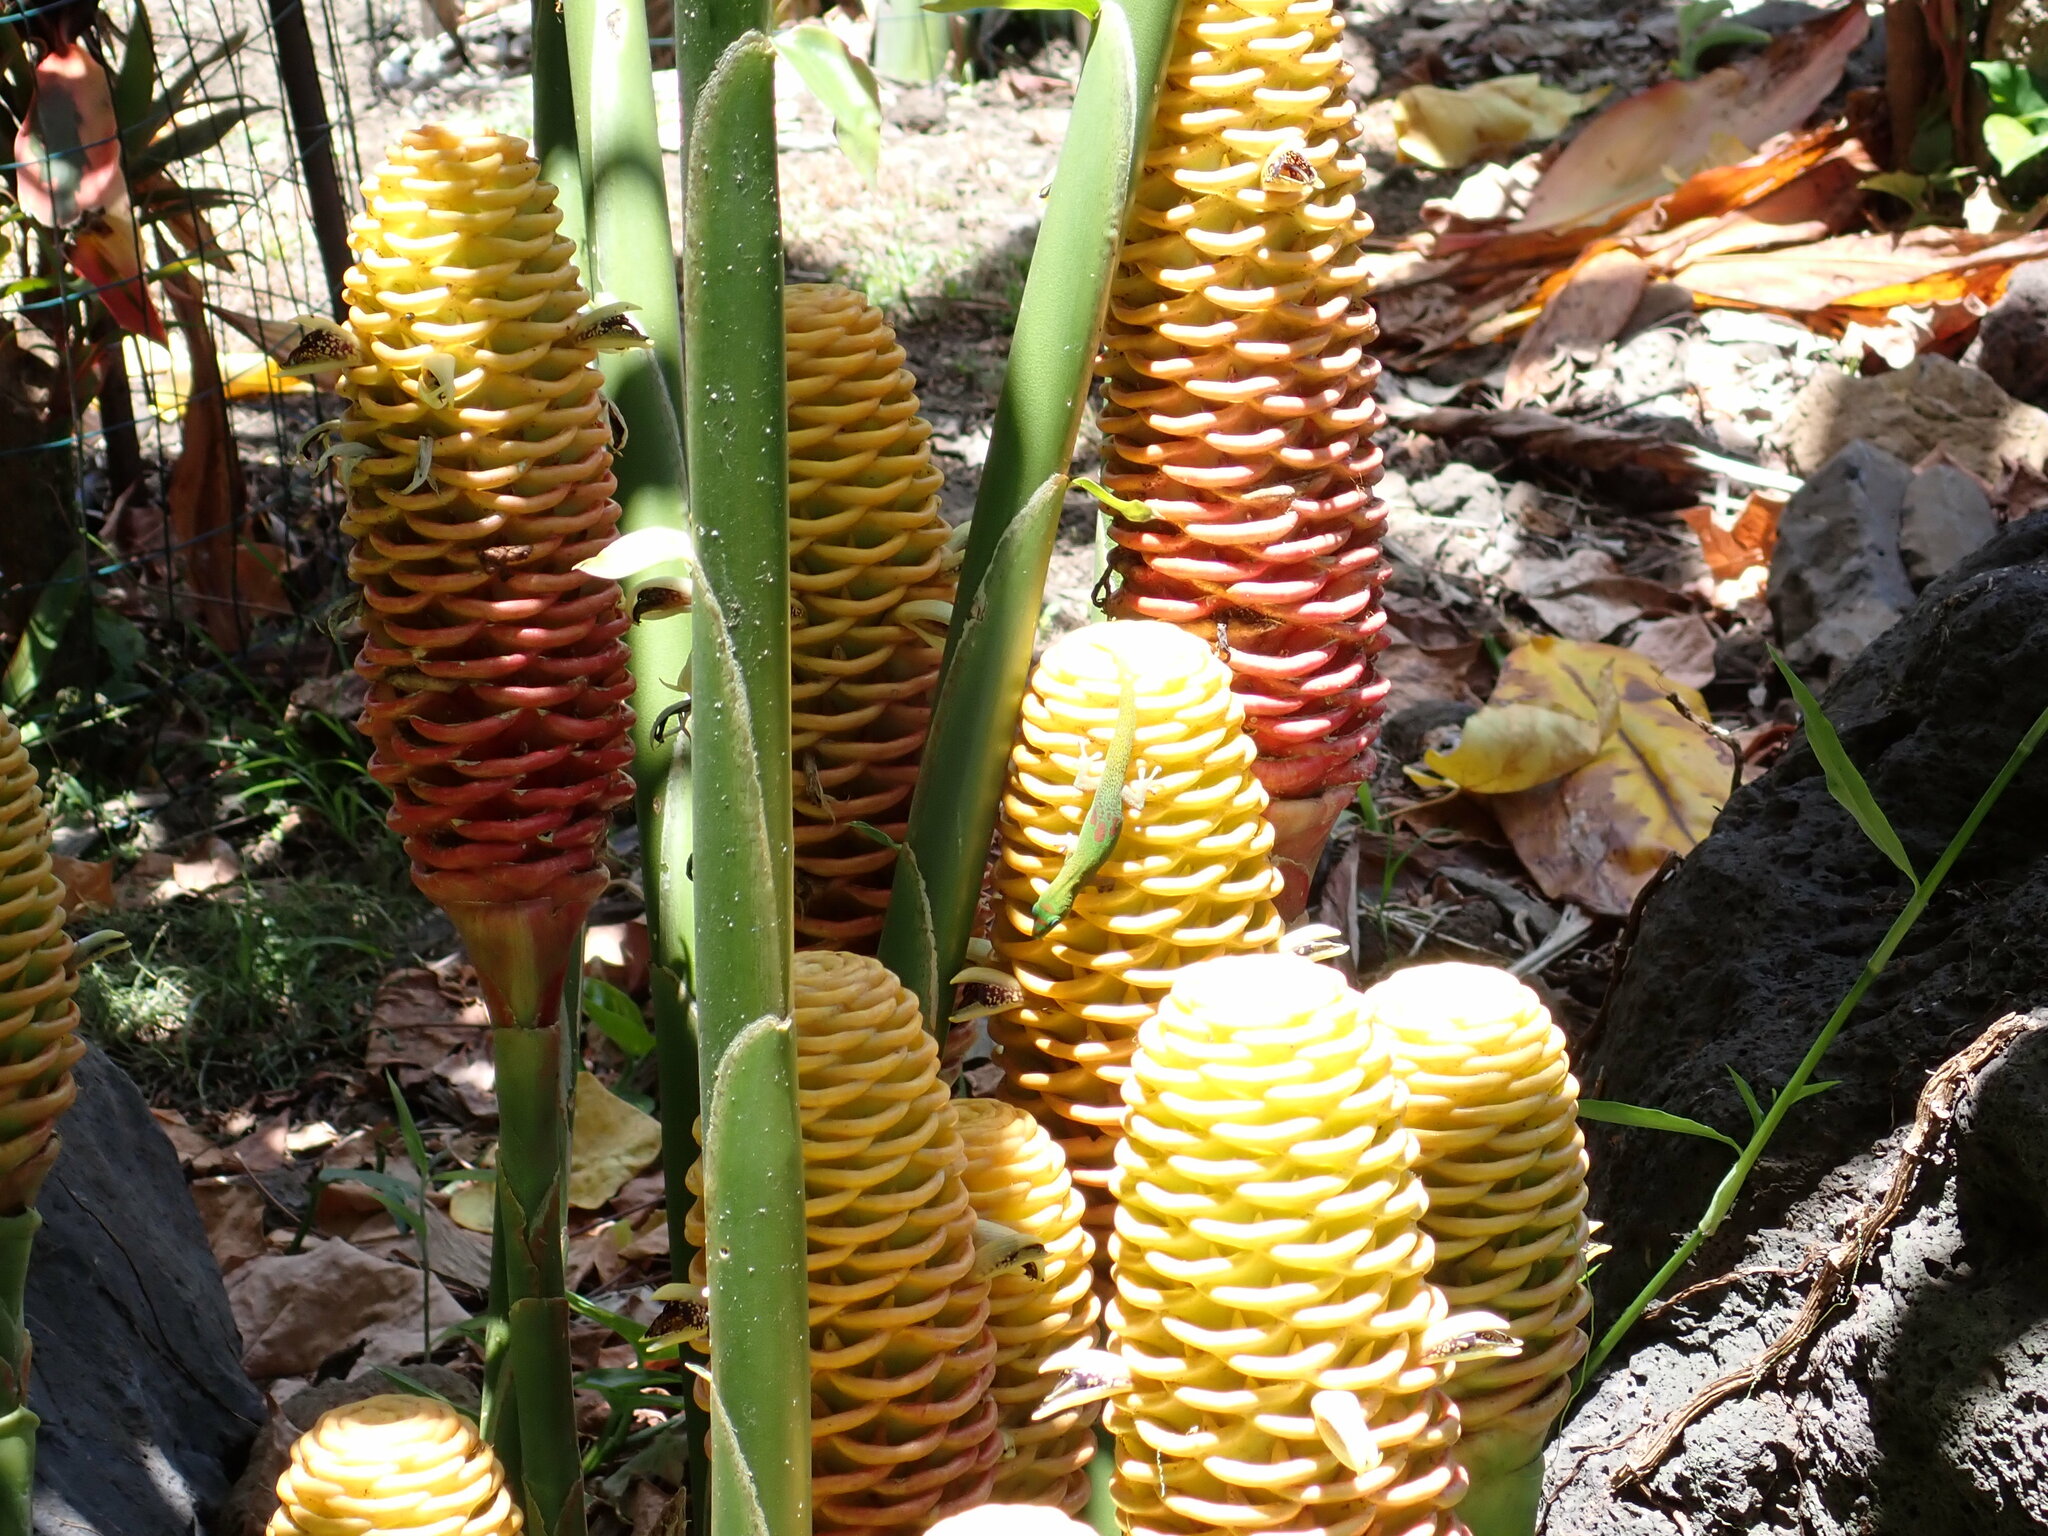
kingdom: Animalia
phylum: Chordata
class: Squamata
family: Gekkonidae
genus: Phelsuma
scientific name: Phelsuma laticauda
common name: Gold dust day gecko
